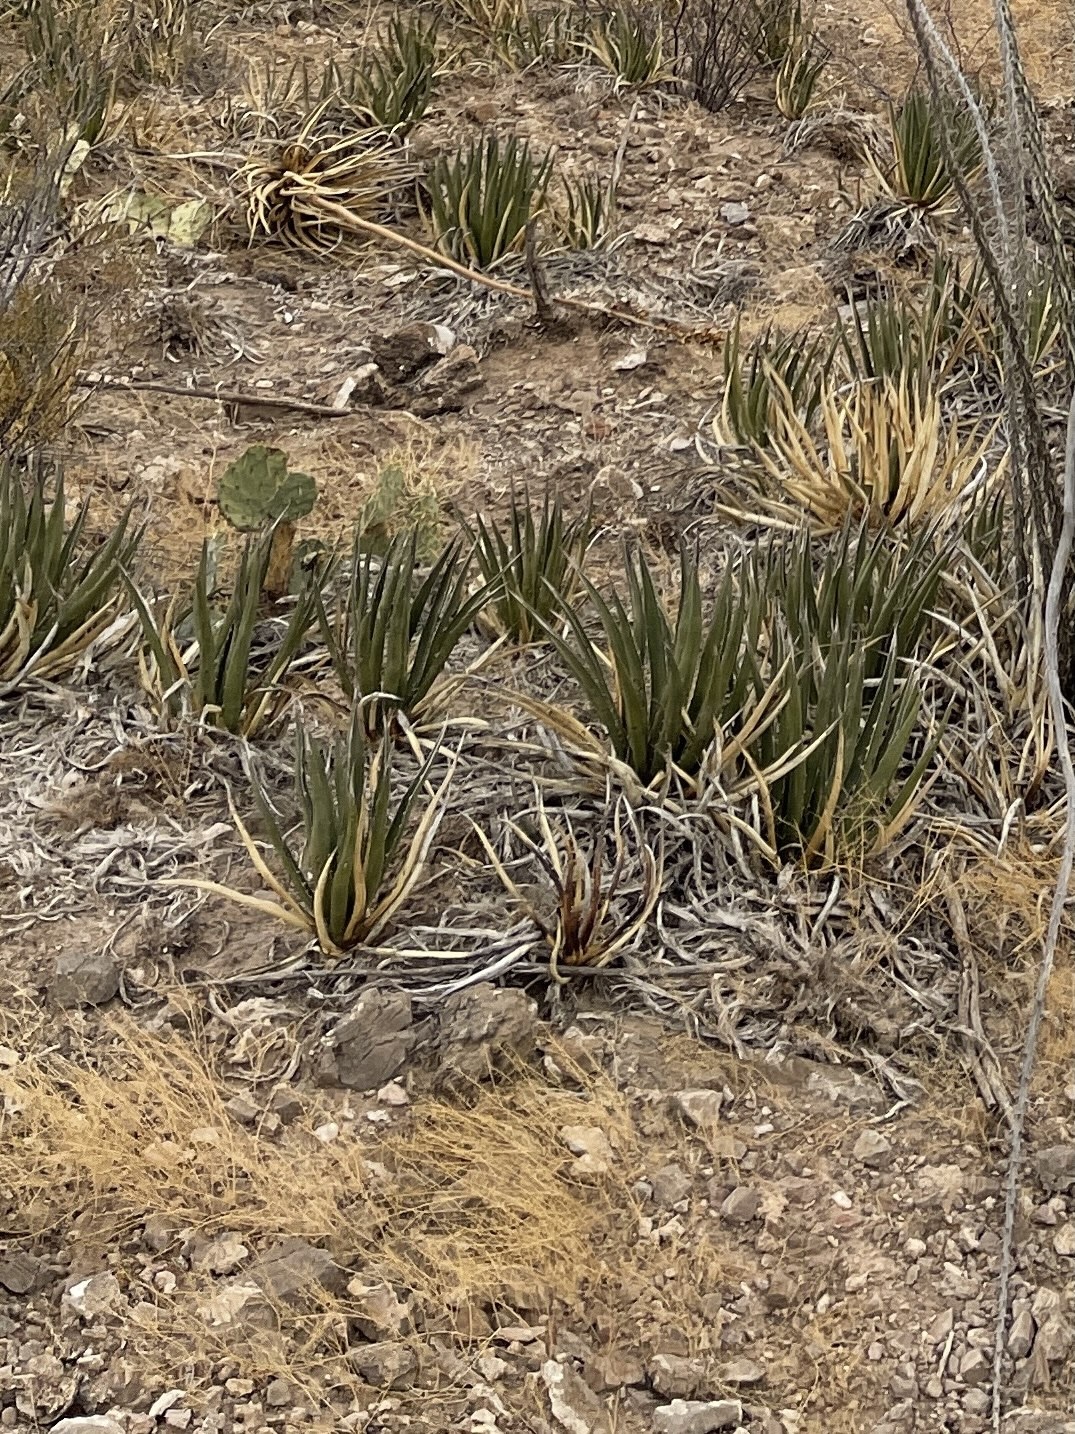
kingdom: Plantae
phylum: Tracheophyta
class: Liliopsida
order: Asparagales
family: Asparagaceae
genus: Agave
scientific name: Agave lechuguilla
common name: Lecheguilla agave
